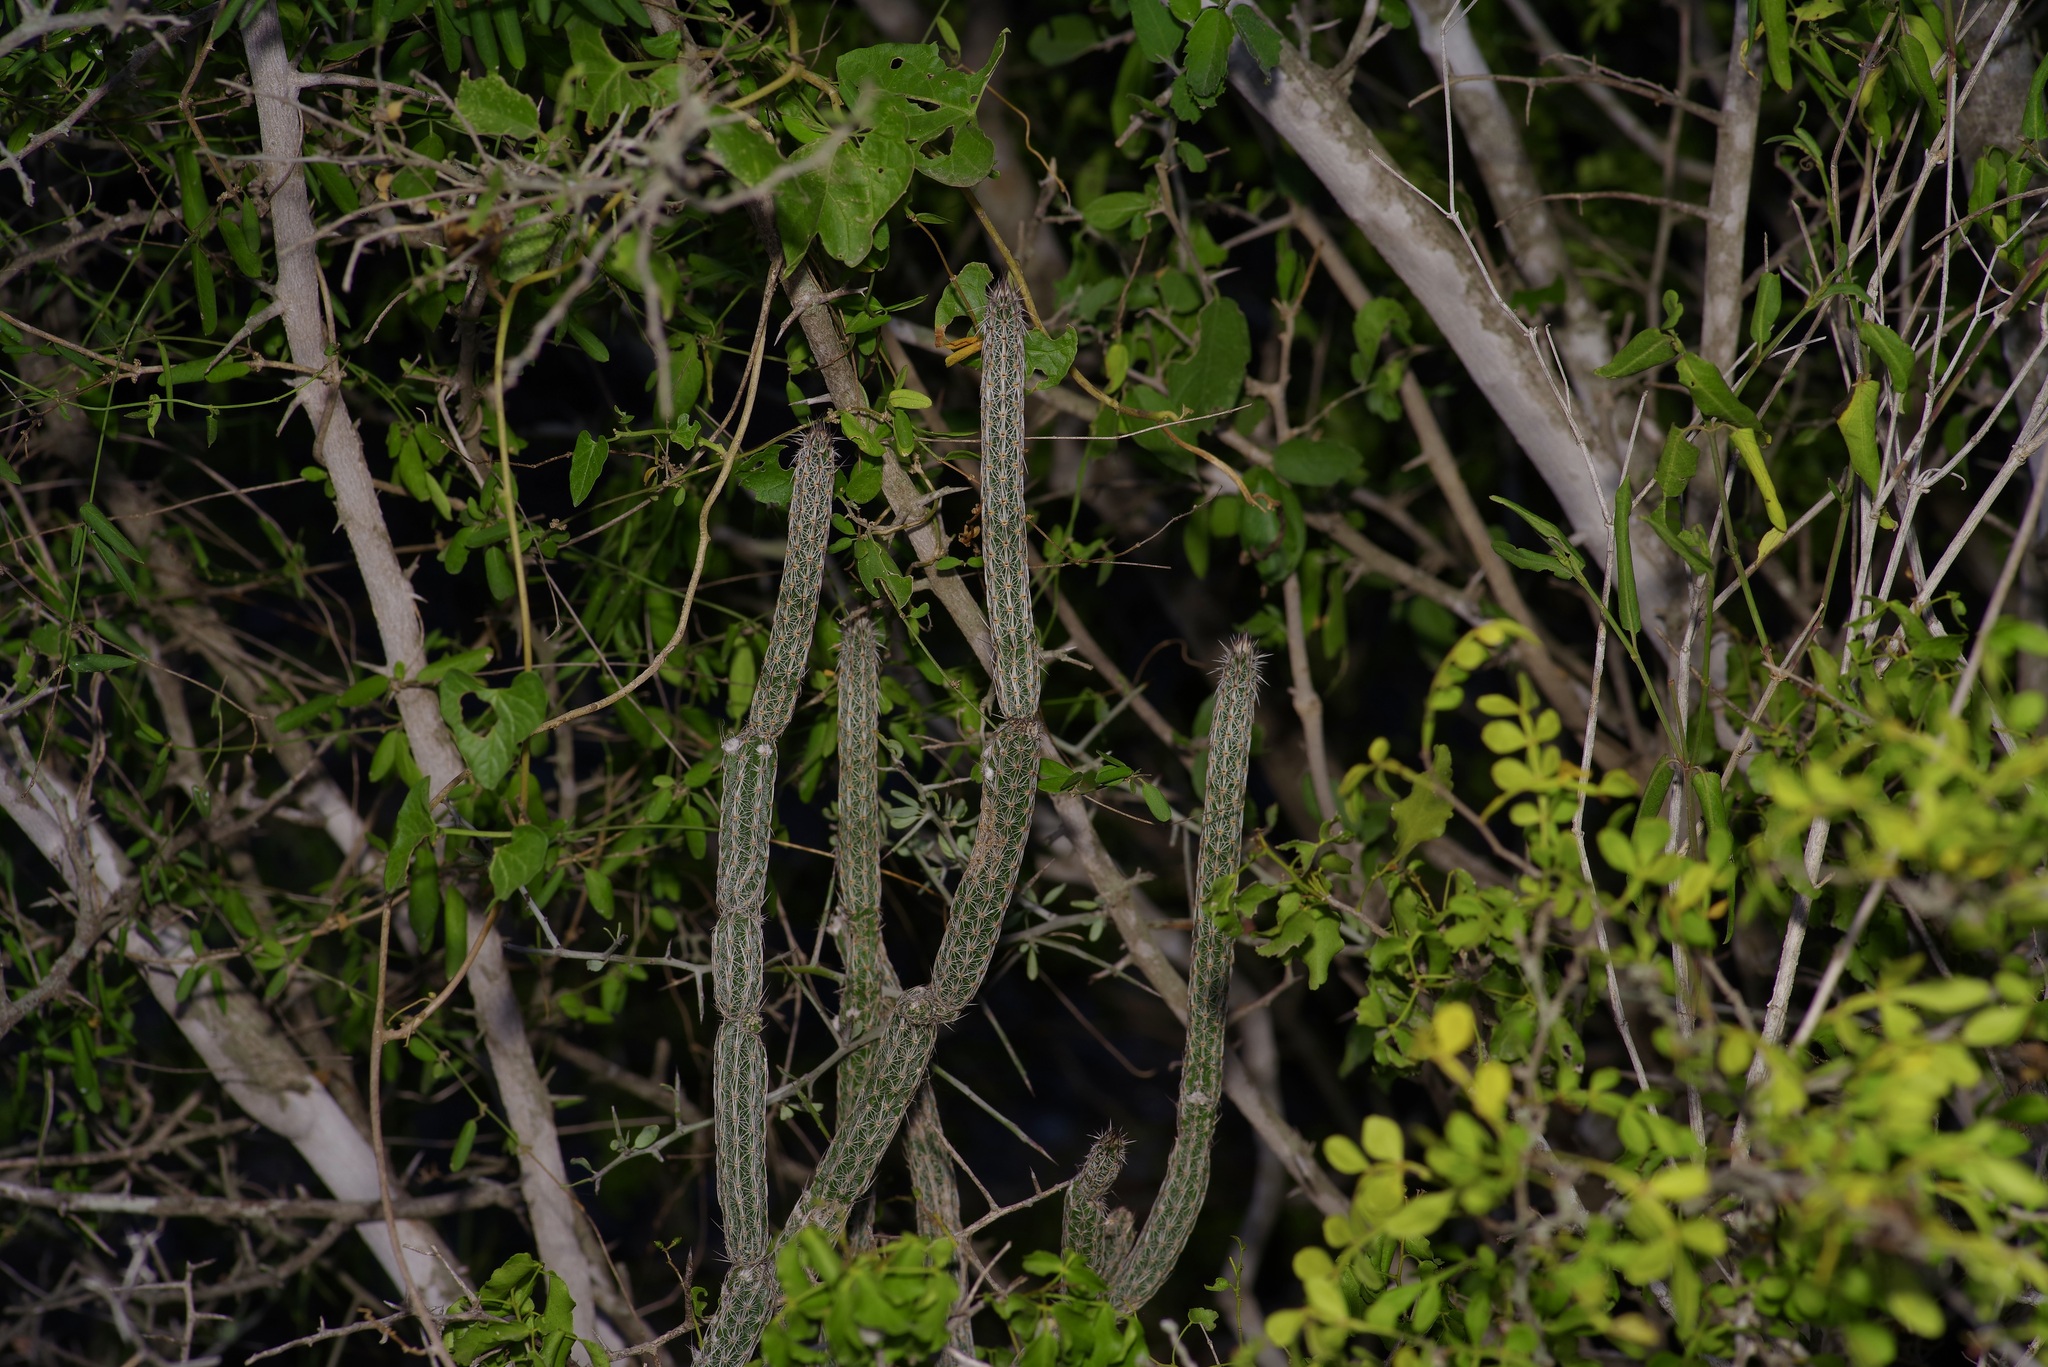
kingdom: Plantae
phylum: Tracheophyta
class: Magnoliopsida
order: Caryophyllales
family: Cactaceae
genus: Echinocereus
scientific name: Echinocereus poselgeri
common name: Dahlia apple cactus
